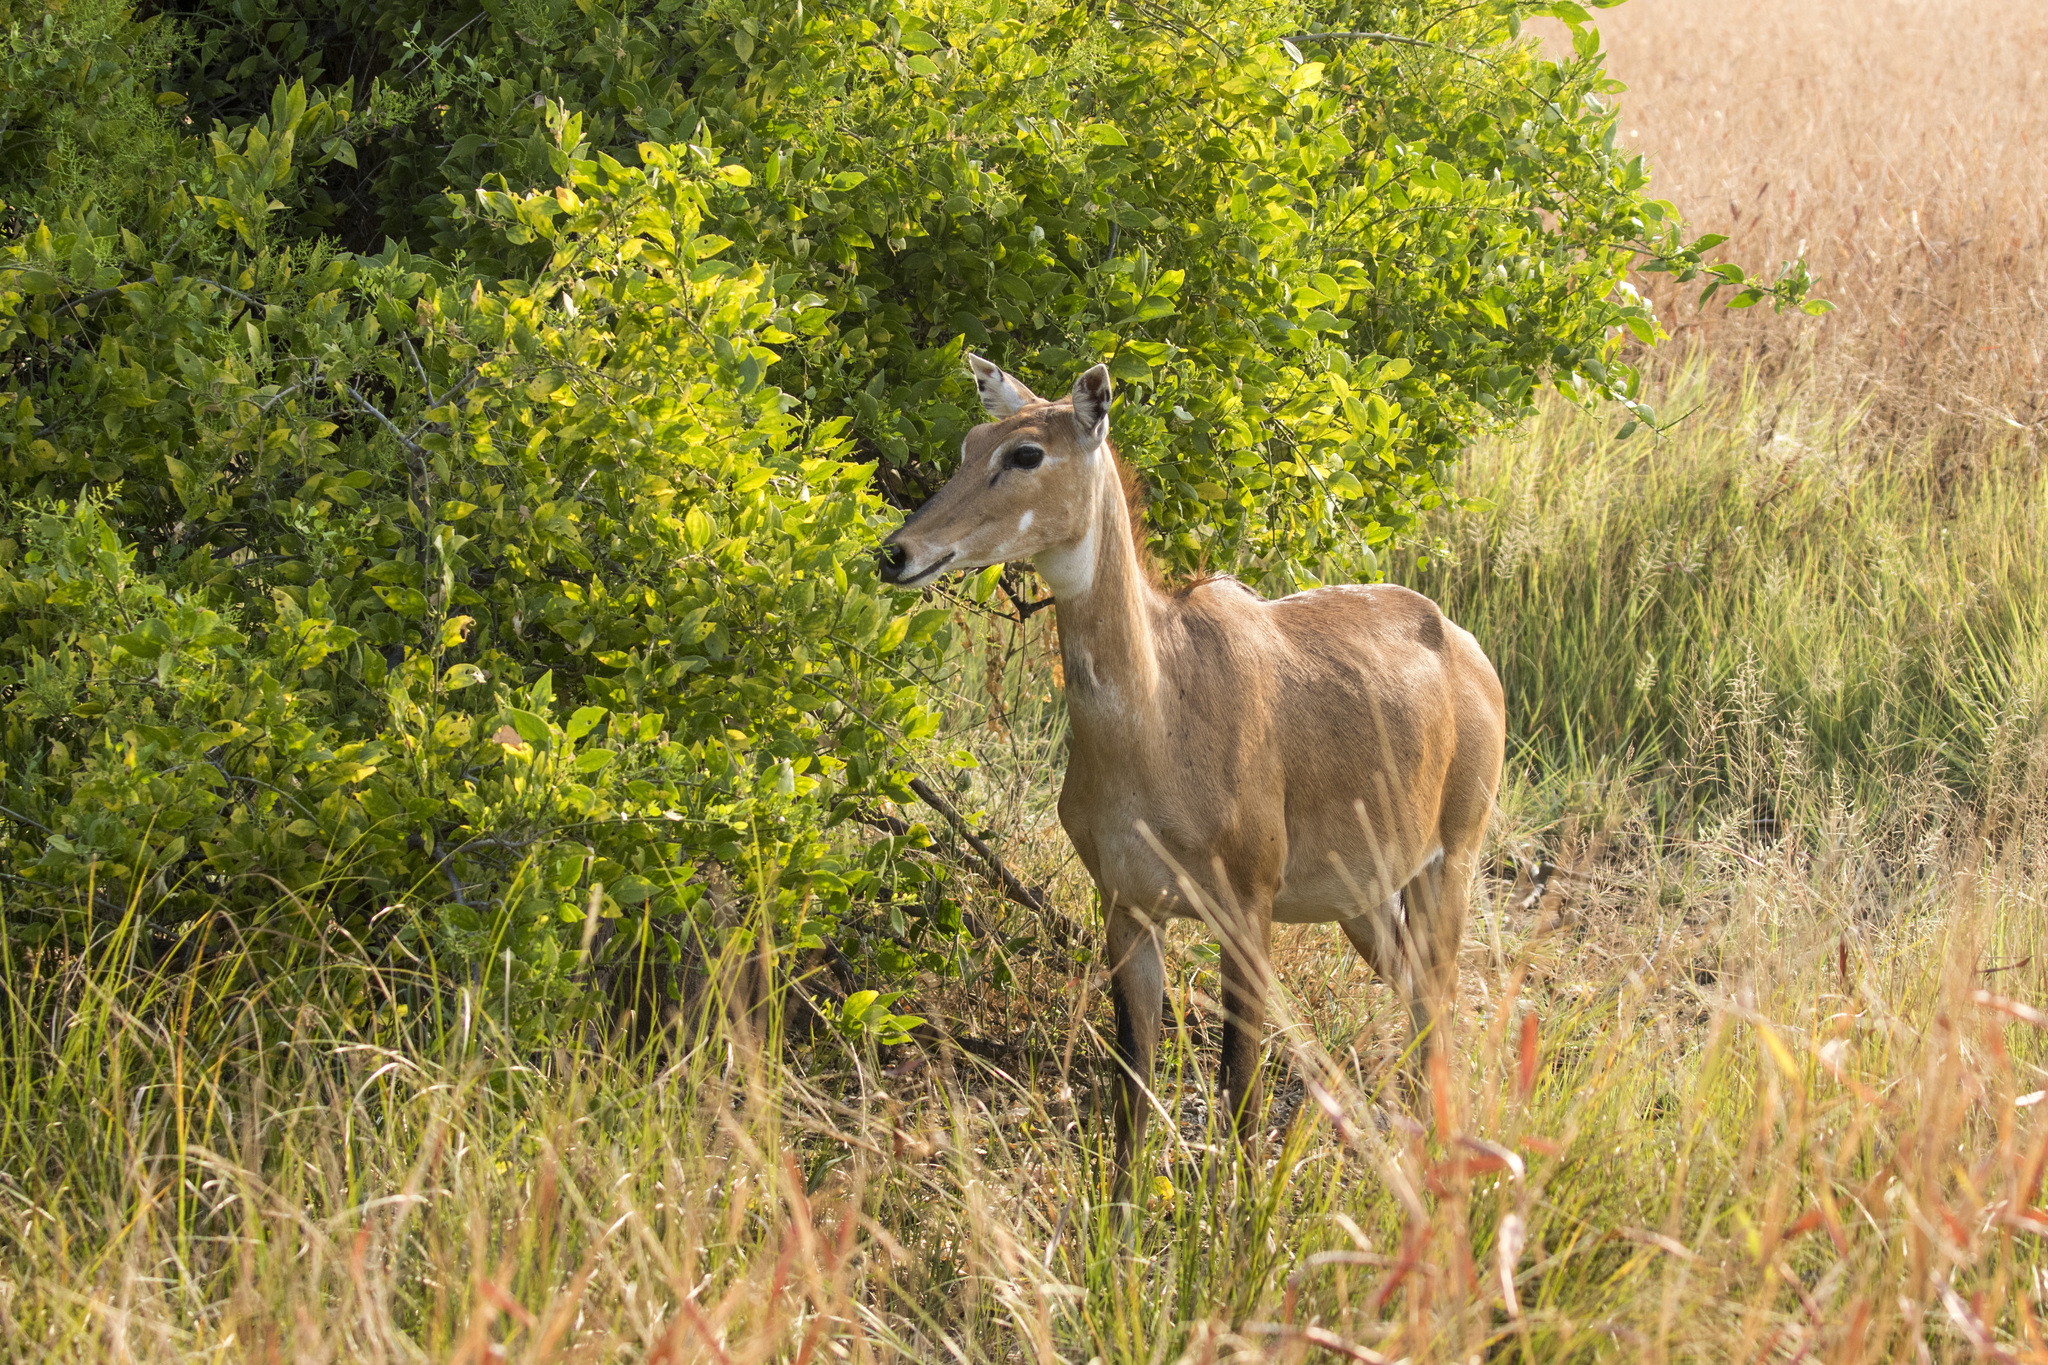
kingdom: Animalia
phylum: Chordata
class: Mammalia
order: Artiodactyla
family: Bovidae
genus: Boselaphus
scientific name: Boselaphus tragocamelus
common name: Nilgai
